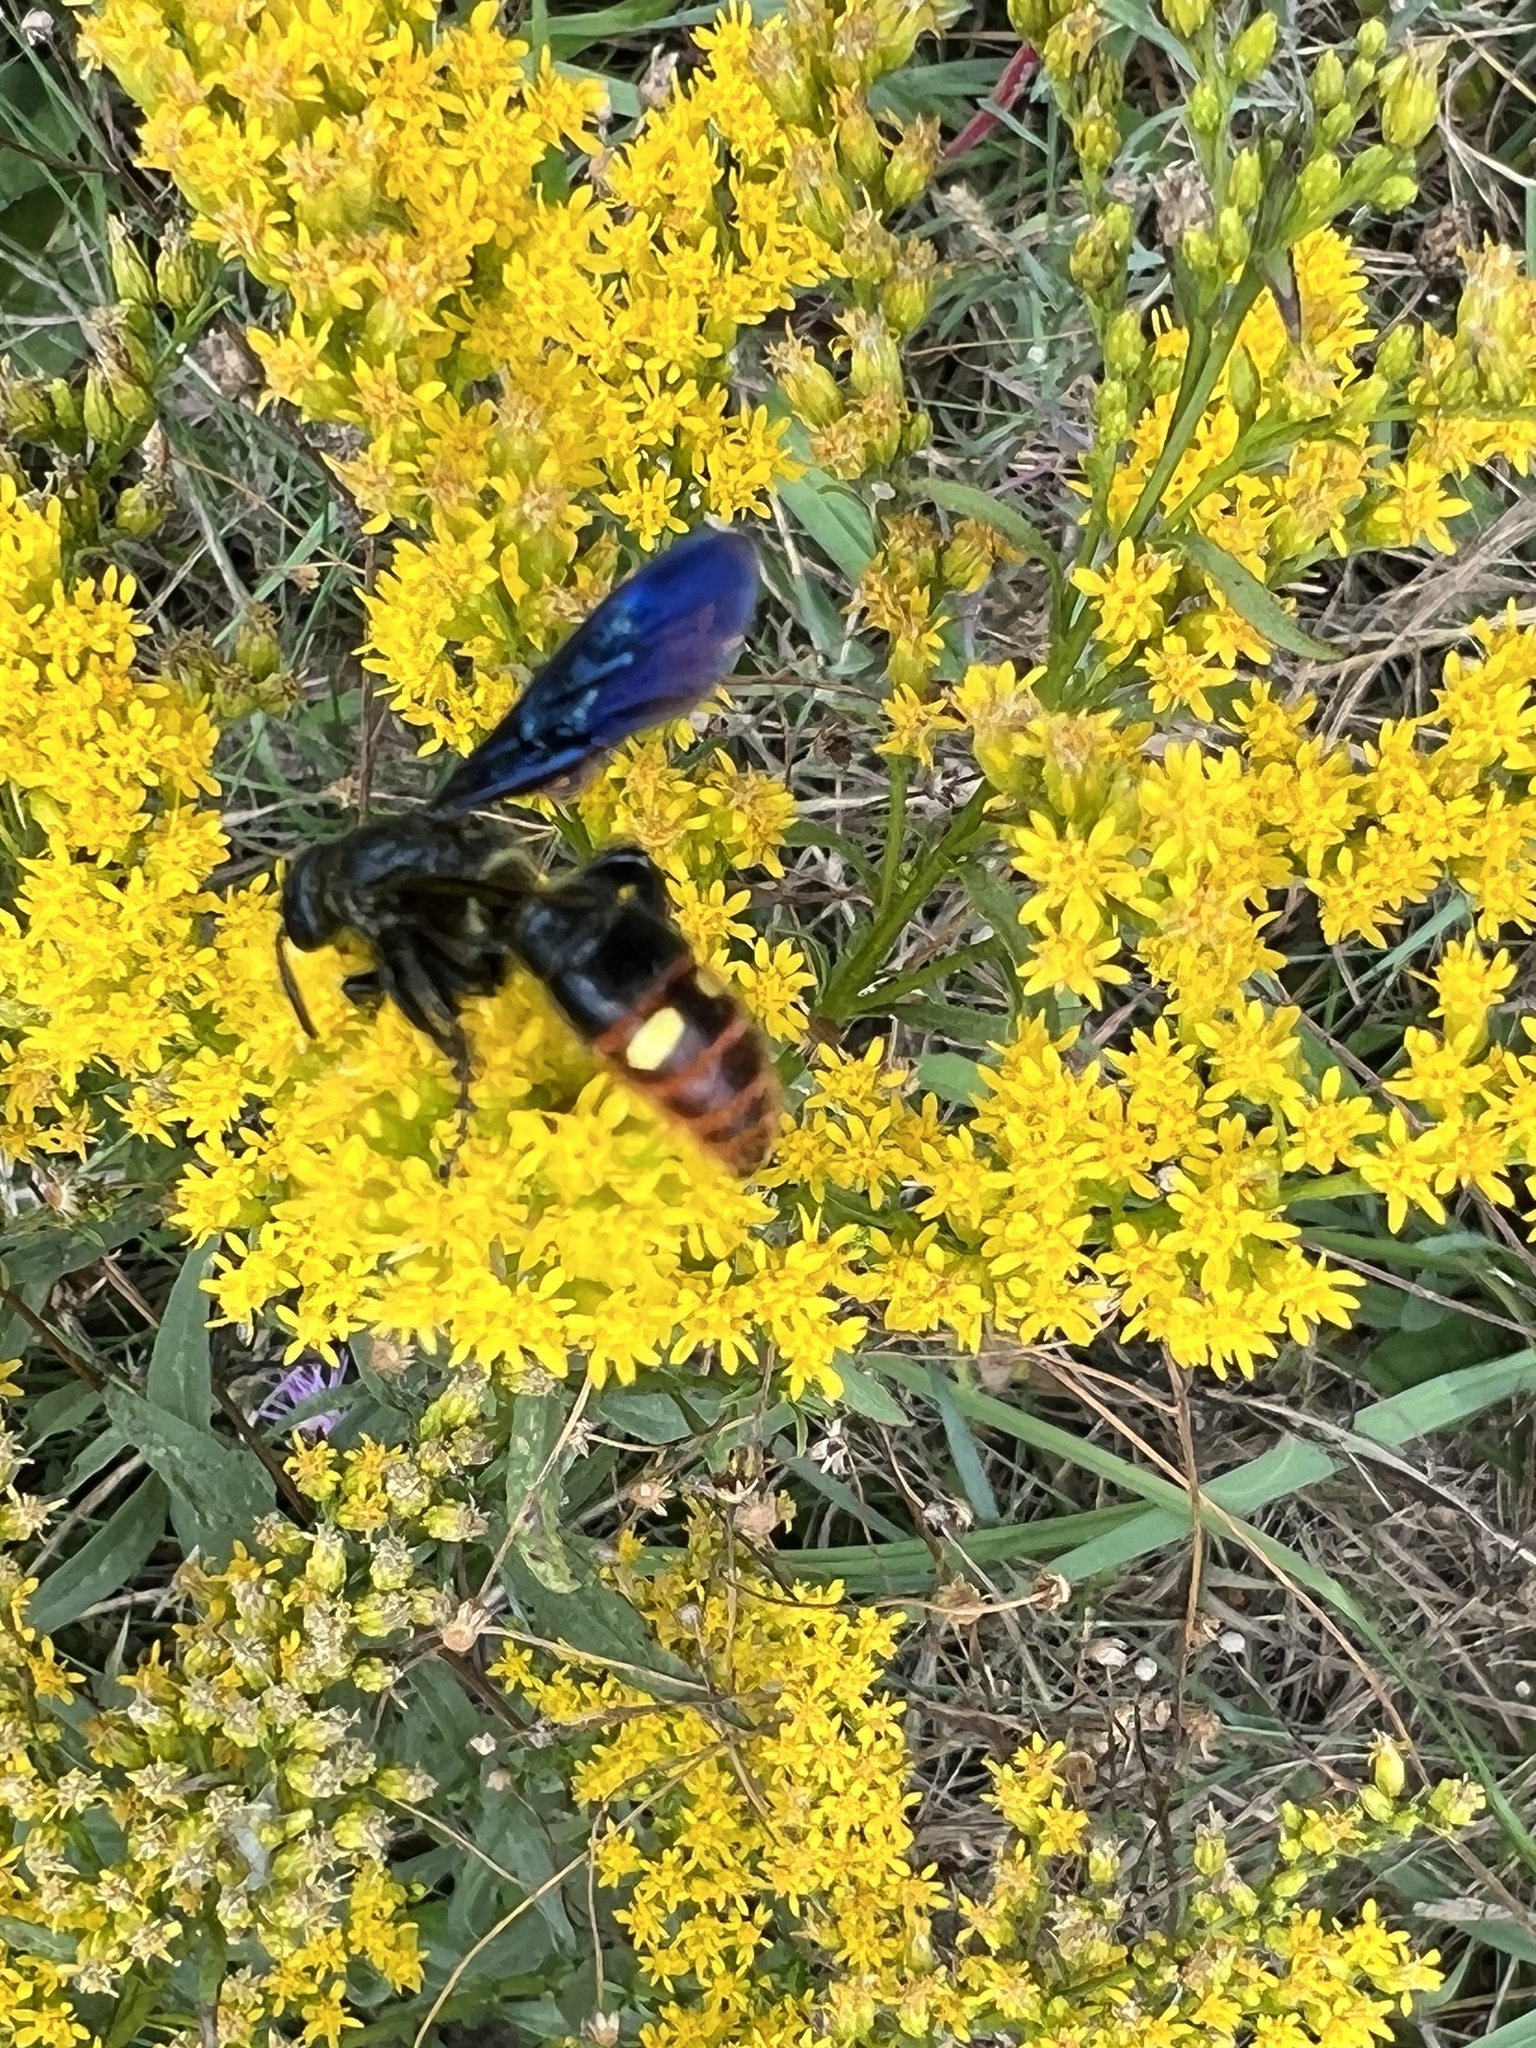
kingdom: Animalia
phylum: Arthropoda
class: Insecta
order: Hymenoptera
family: Scoliidae
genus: Scolia
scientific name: Scolia dubia
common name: Blue-winged scoliid wasp
